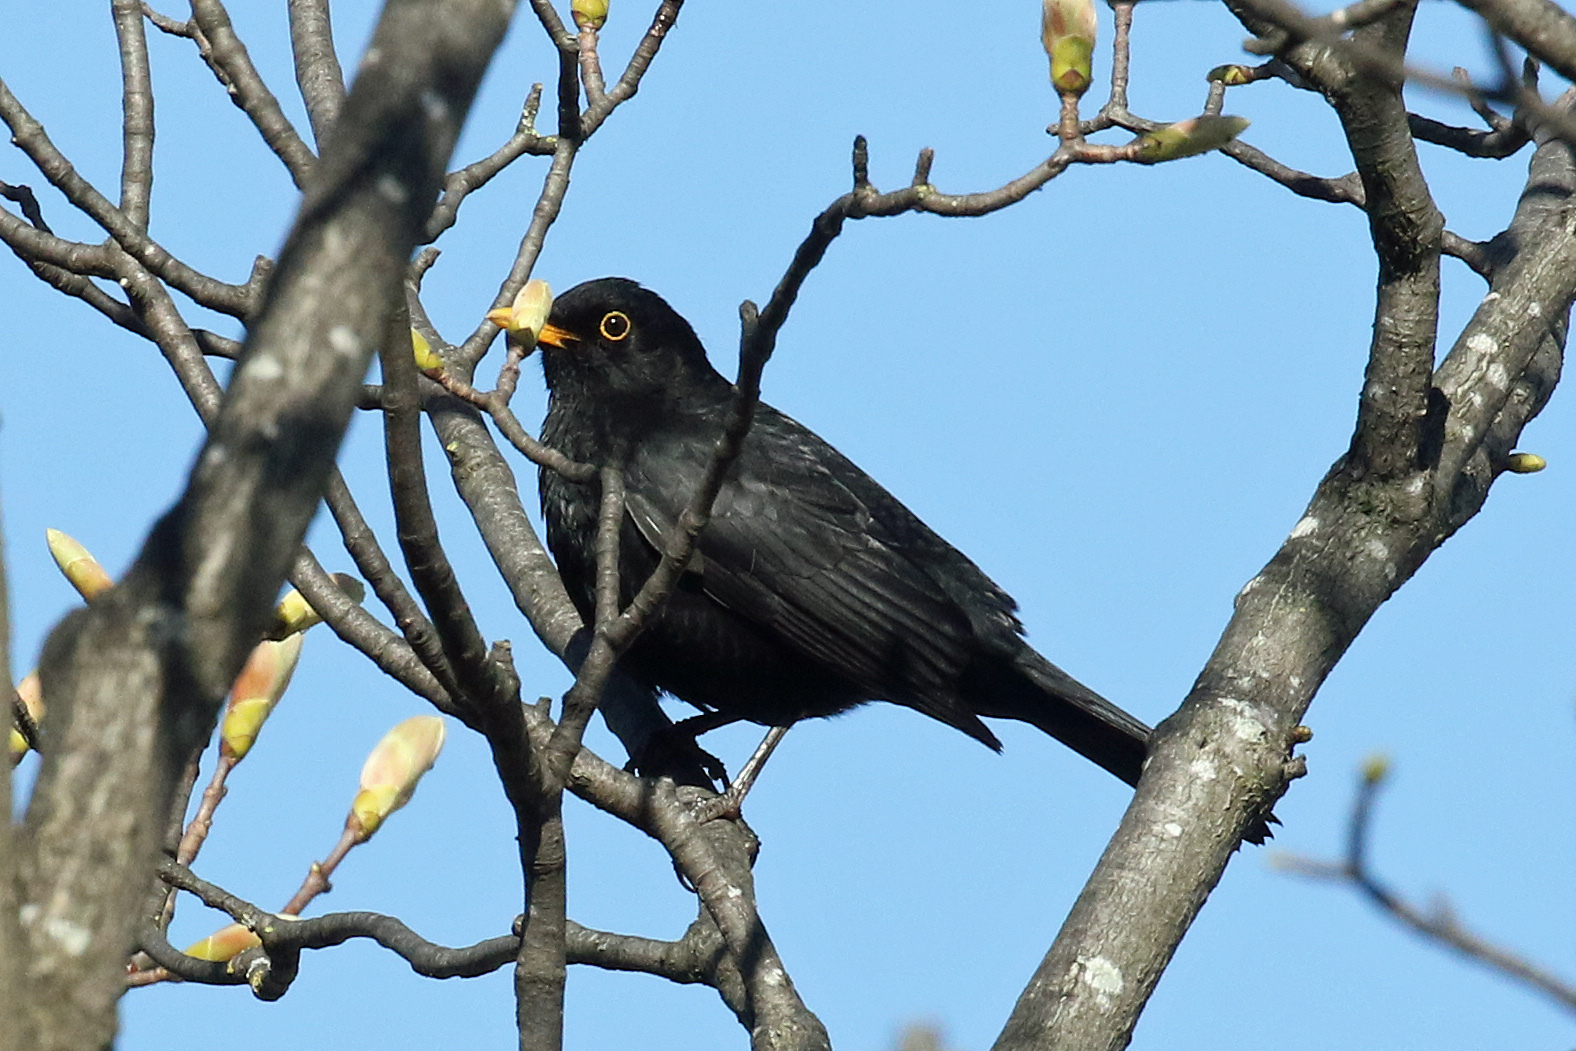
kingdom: Animalia
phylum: Chordata
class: Aves
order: Passeriformes
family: Turdidae
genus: Turdus
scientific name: Turdus merula
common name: Common blackbird
